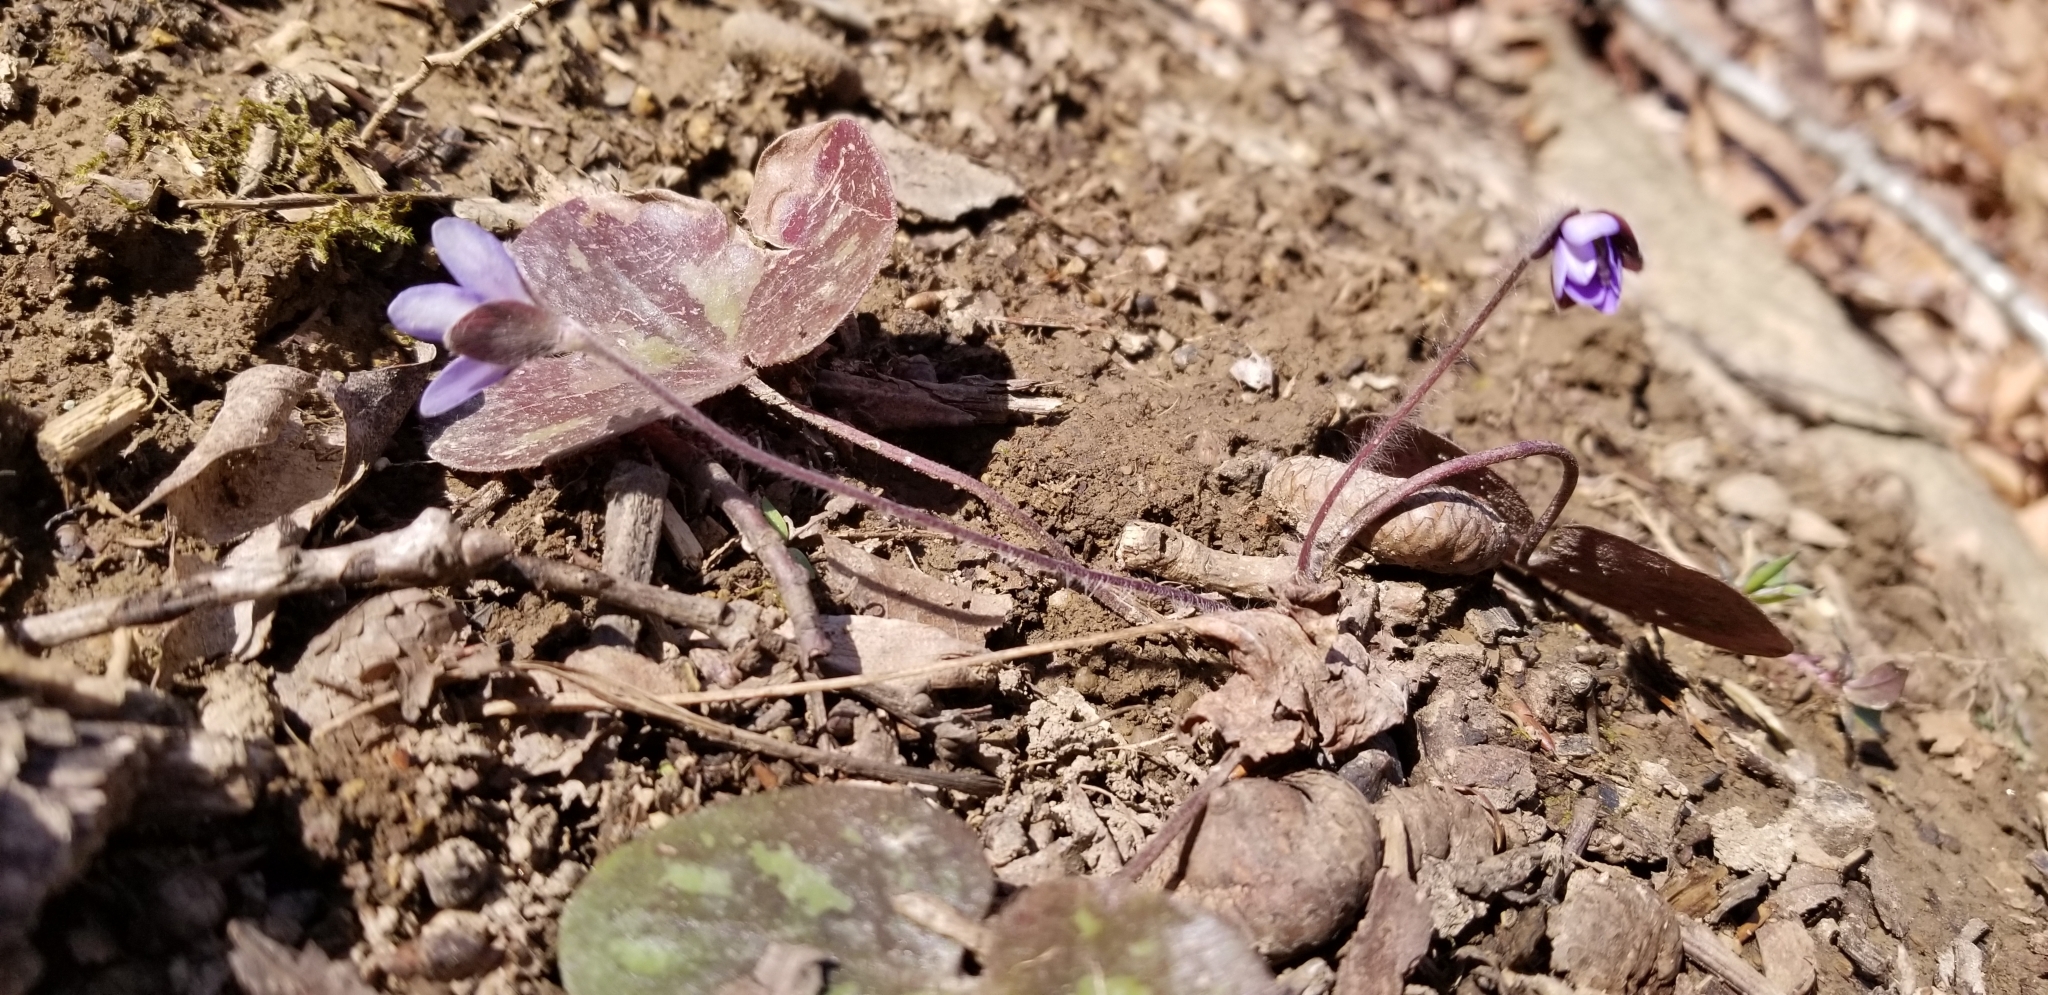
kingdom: Plantae
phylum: Tracheophyta
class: Magnoliopsida
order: Ranunculales
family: Ranunculaceae
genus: Hepatica
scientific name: Hepatica americana
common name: American hepatica
